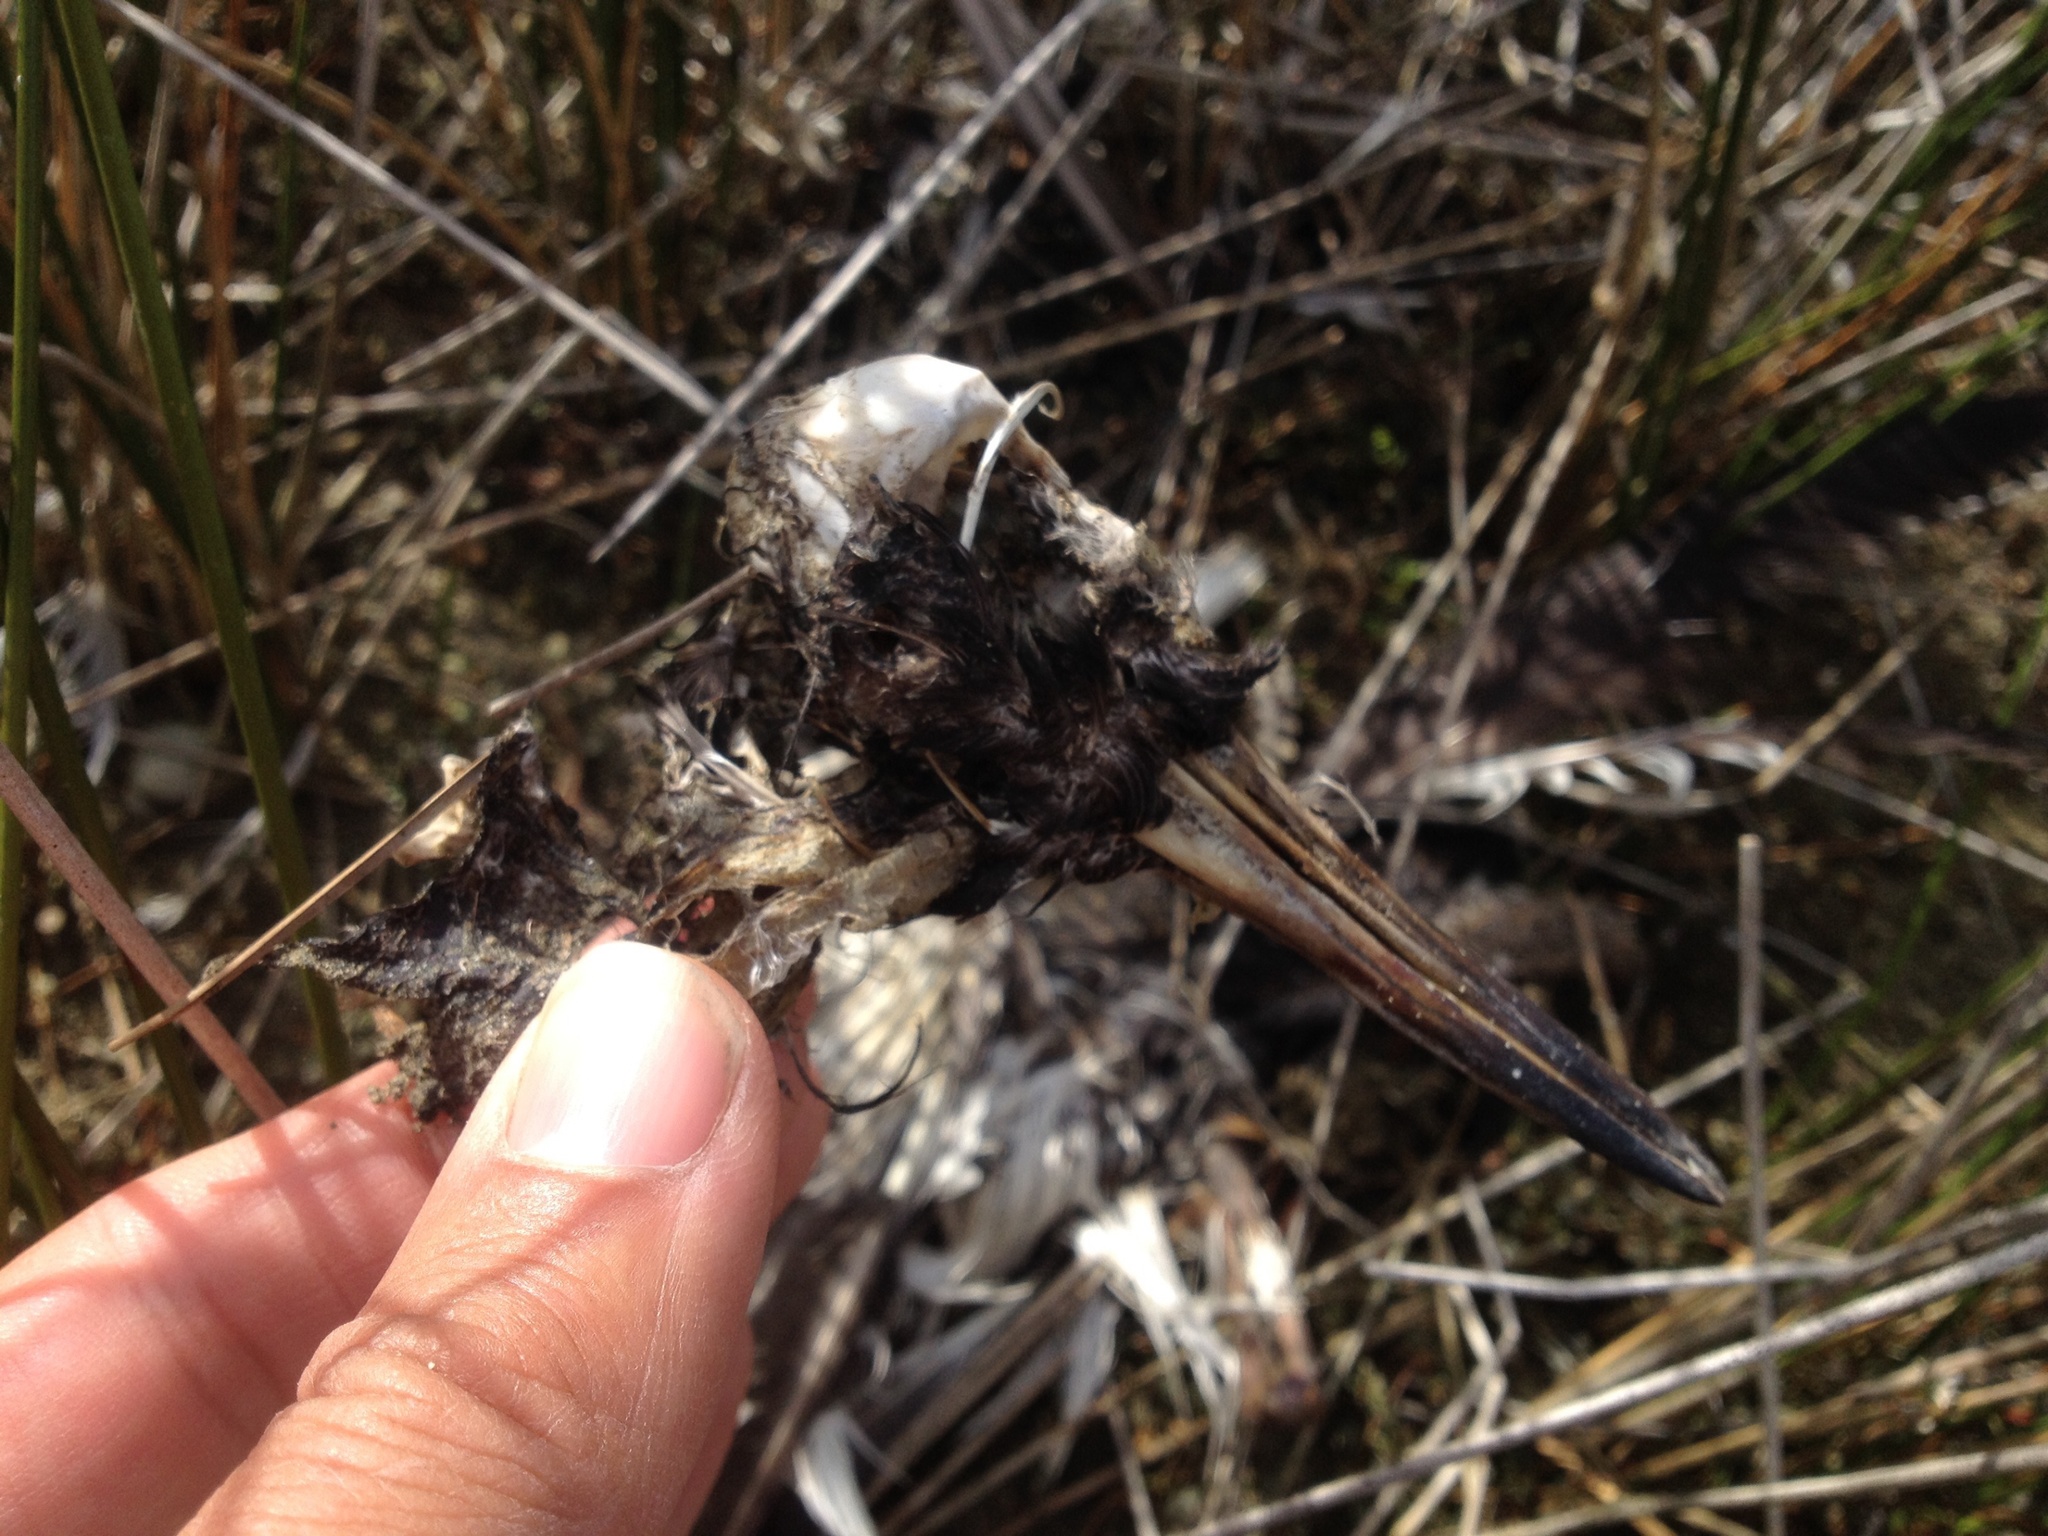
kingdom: Animalia
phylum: Chordata
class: Aves
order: Charadriiformes
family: Haematopodidae
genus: Haematopus
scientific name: Haematopus unicolor
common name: Variable oystercatcher
